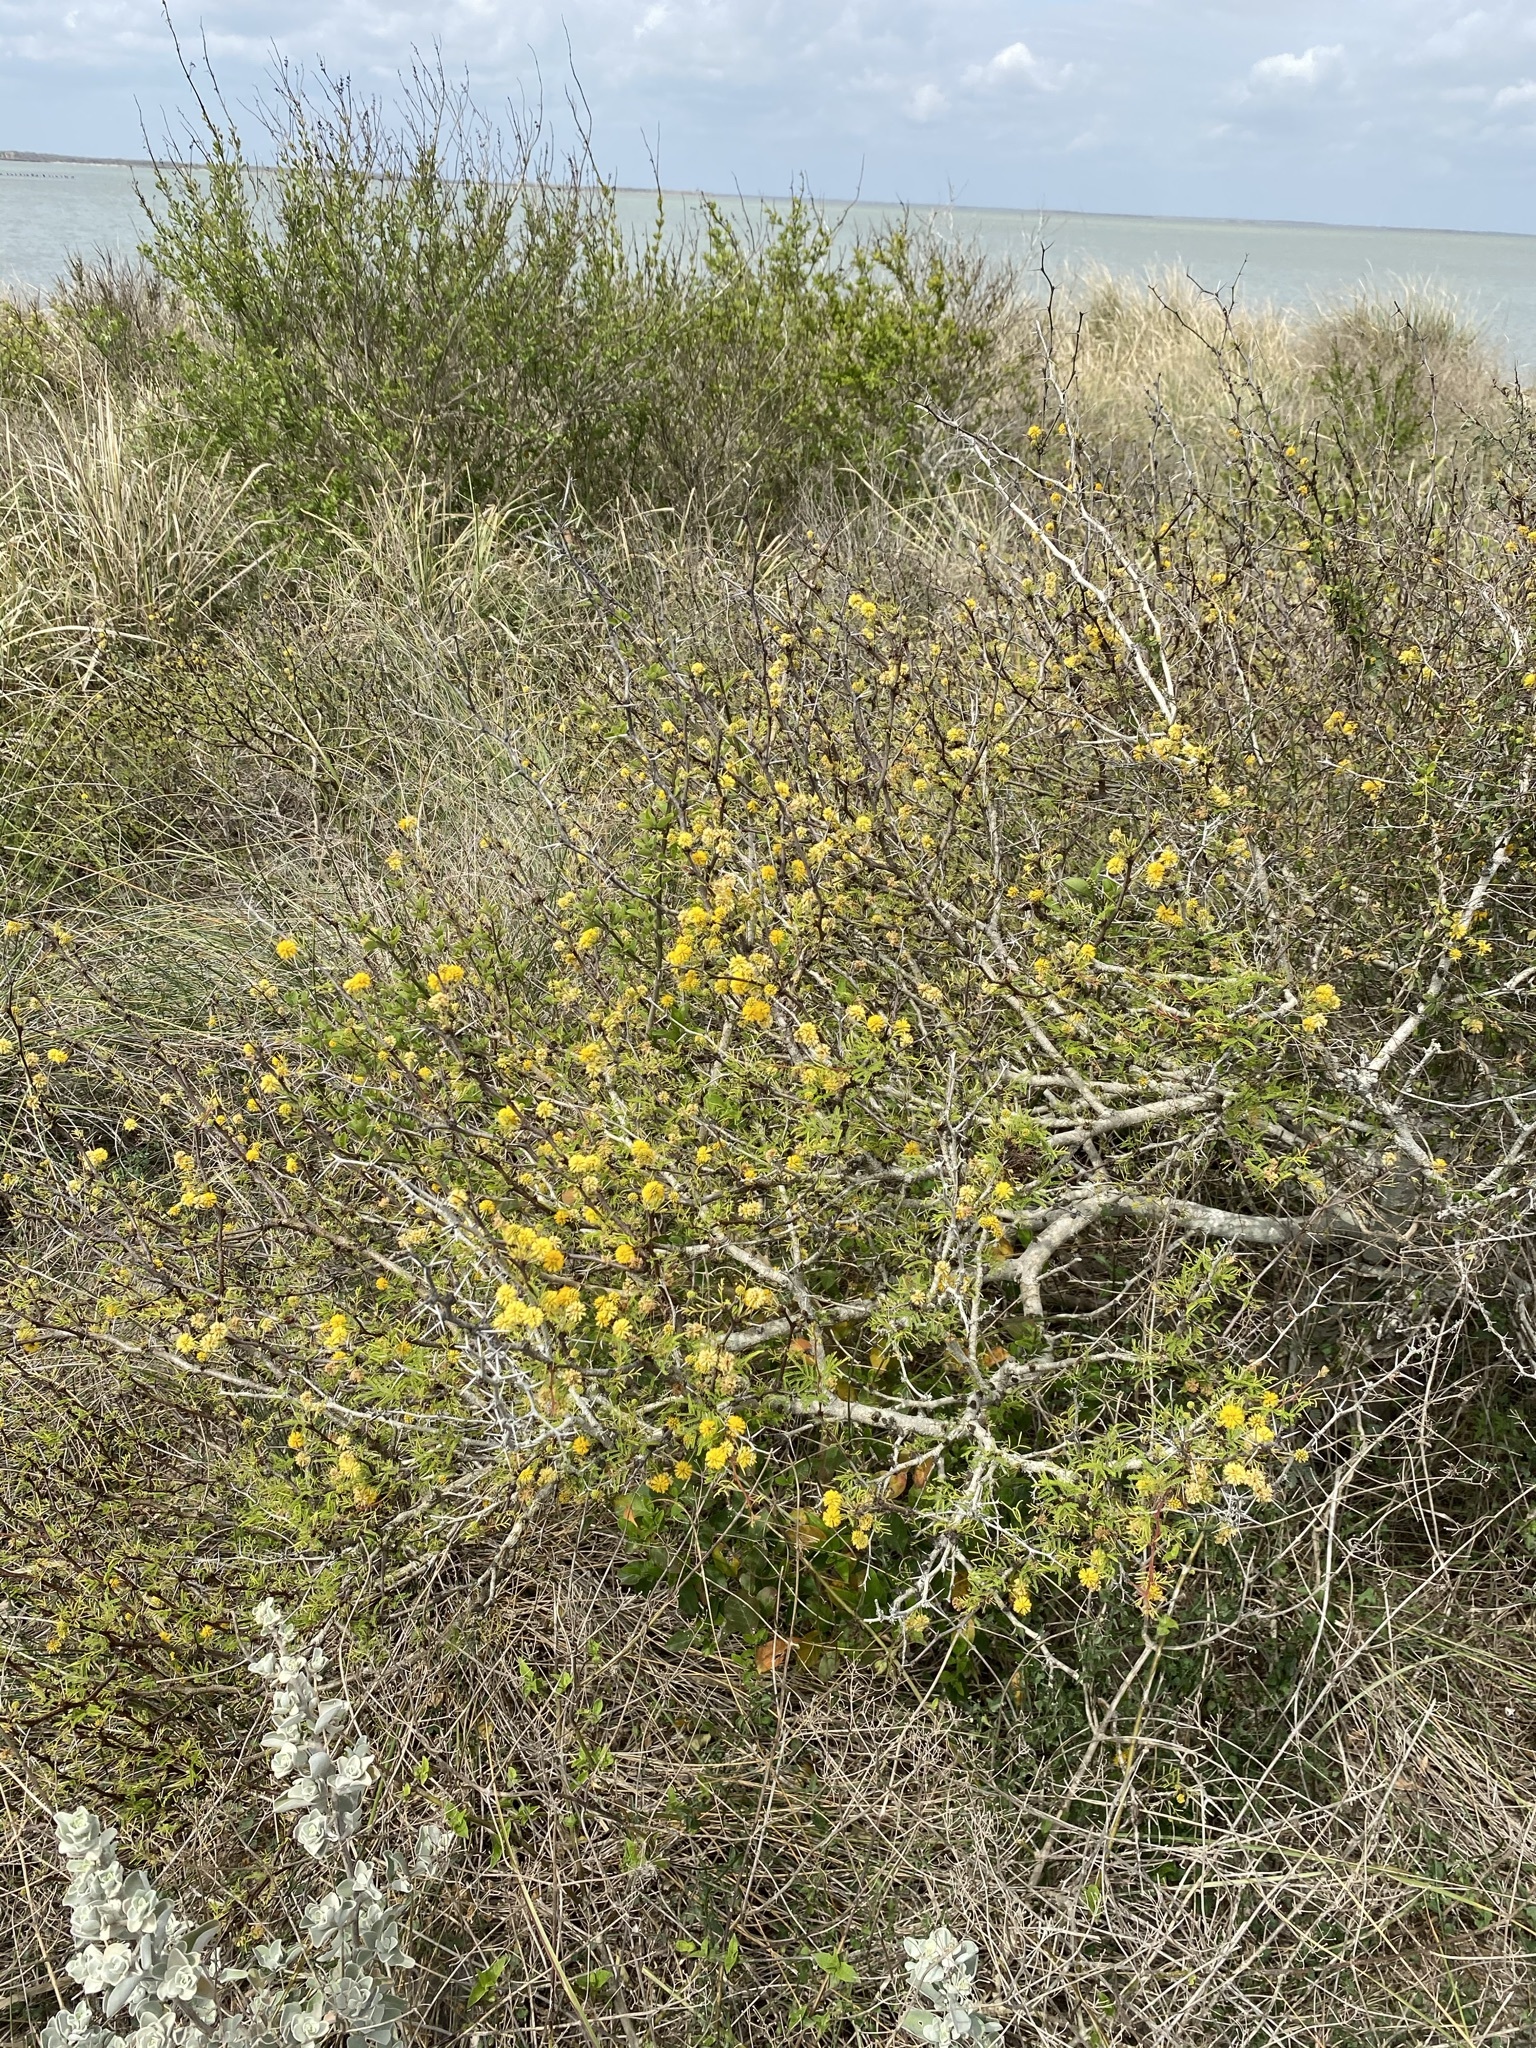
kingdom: Plantae
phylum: Tracheophyta
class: Magnoliopsida
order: Fabales
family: Fabaceae
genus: Vachellia
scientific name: Vachellia schaffneri
